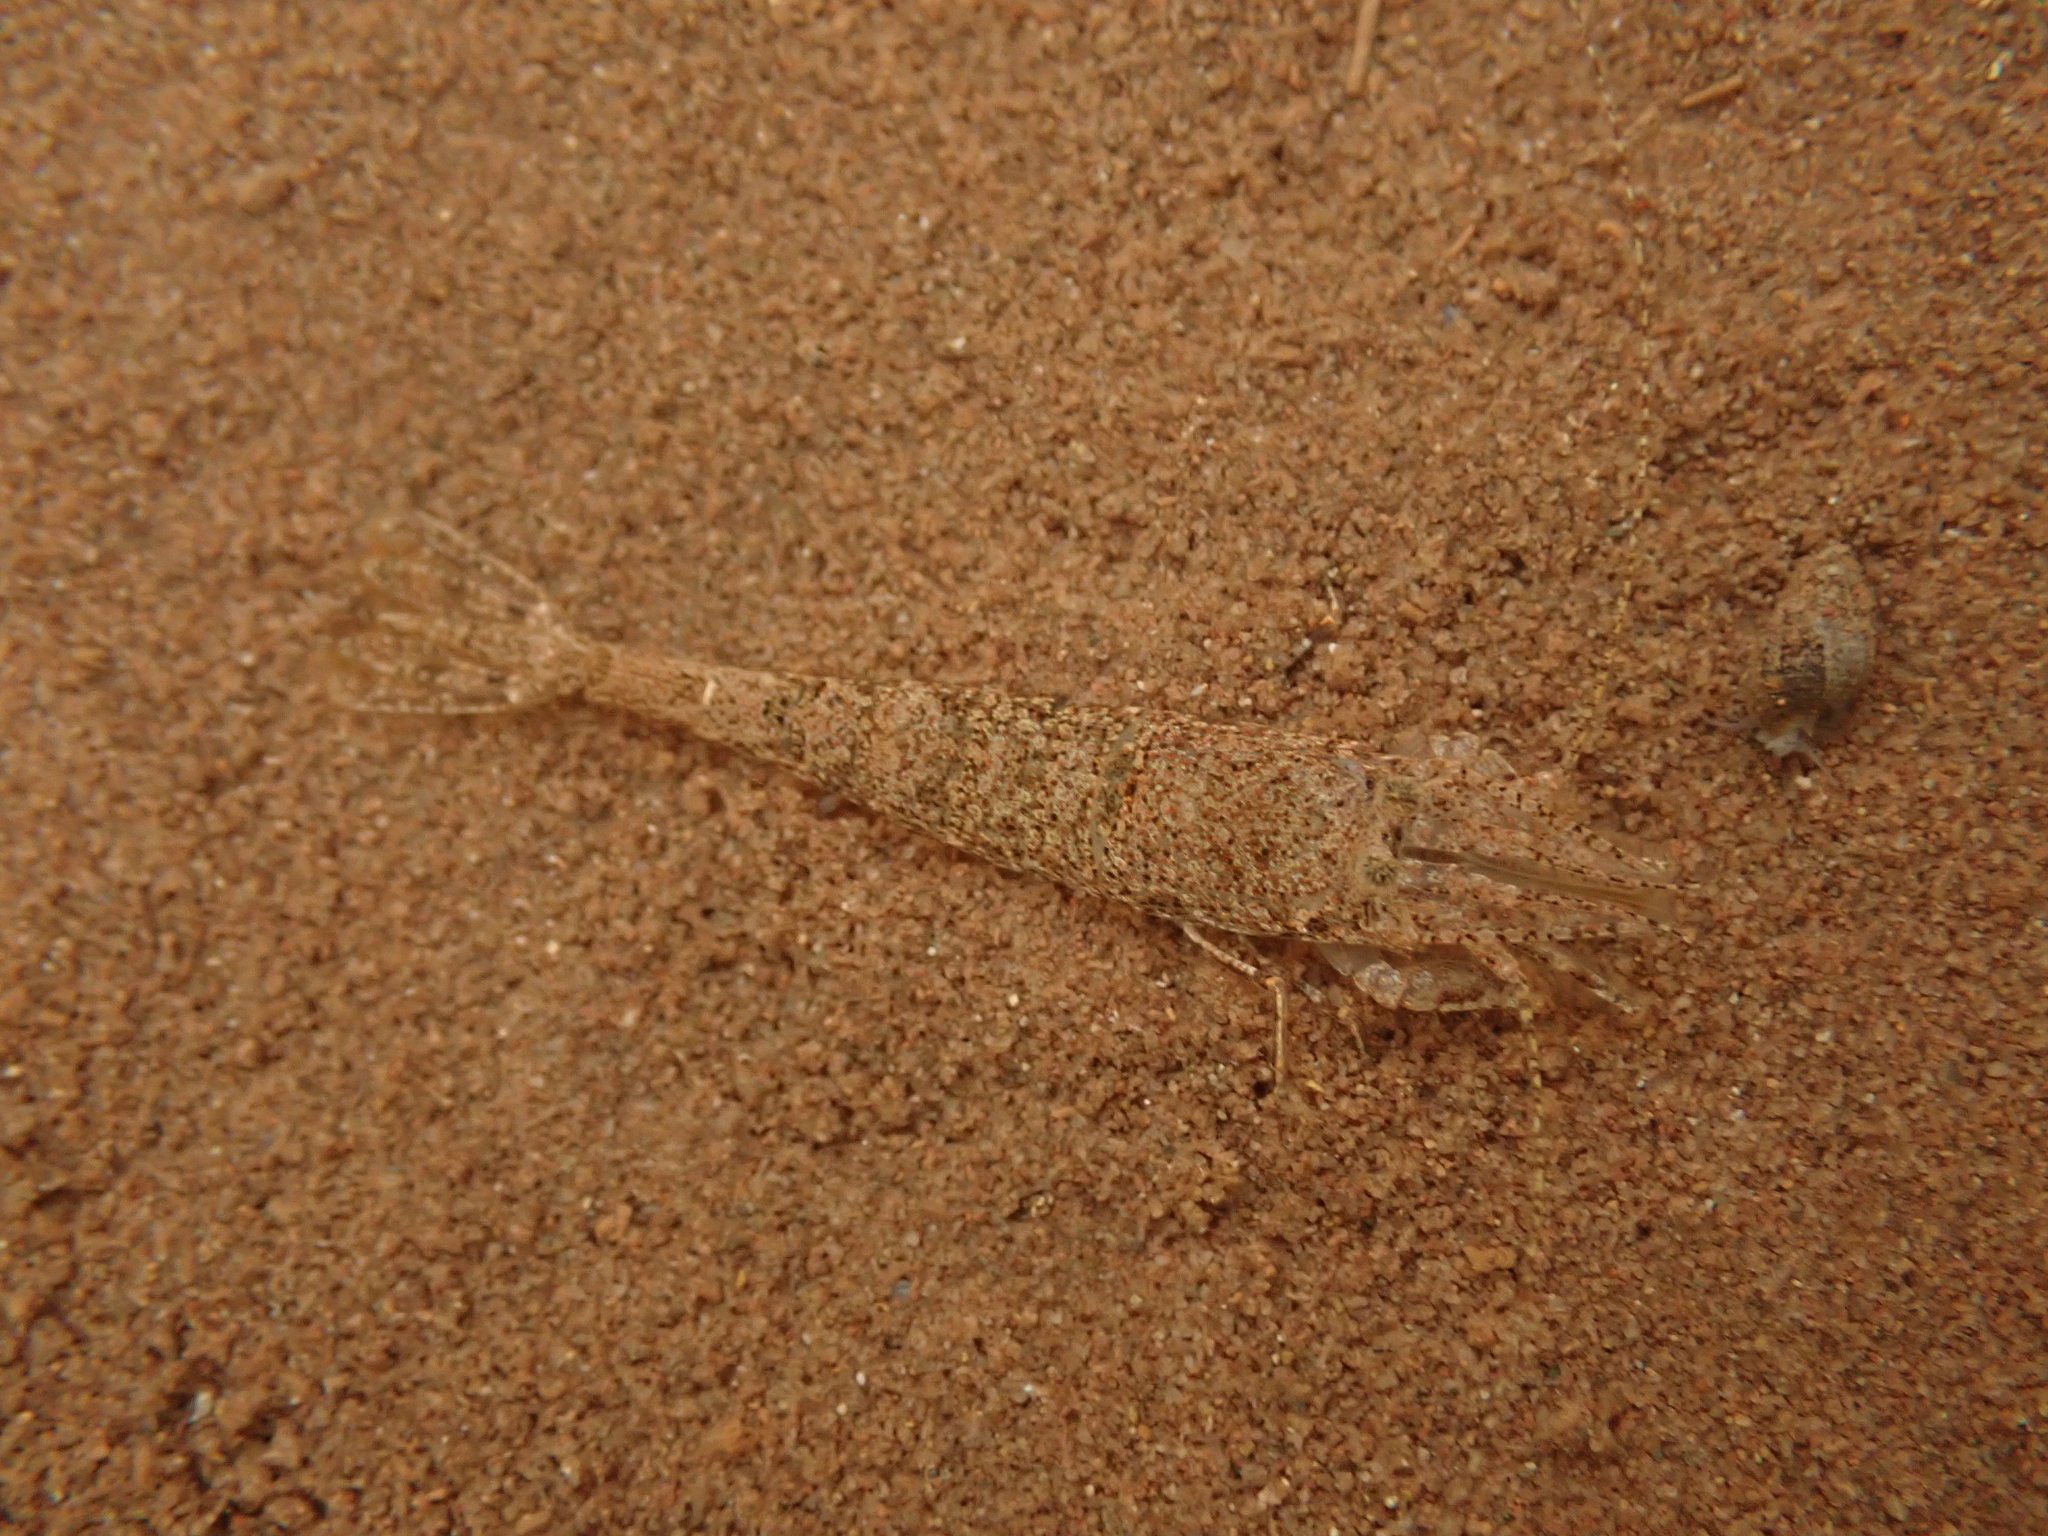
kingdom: Animalia
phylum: Arthropoda
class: Malacostraca
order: Decapoda
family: Crangonidae
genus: Crangon
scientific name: Crangon septemspinosa
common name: Bail shrimp
